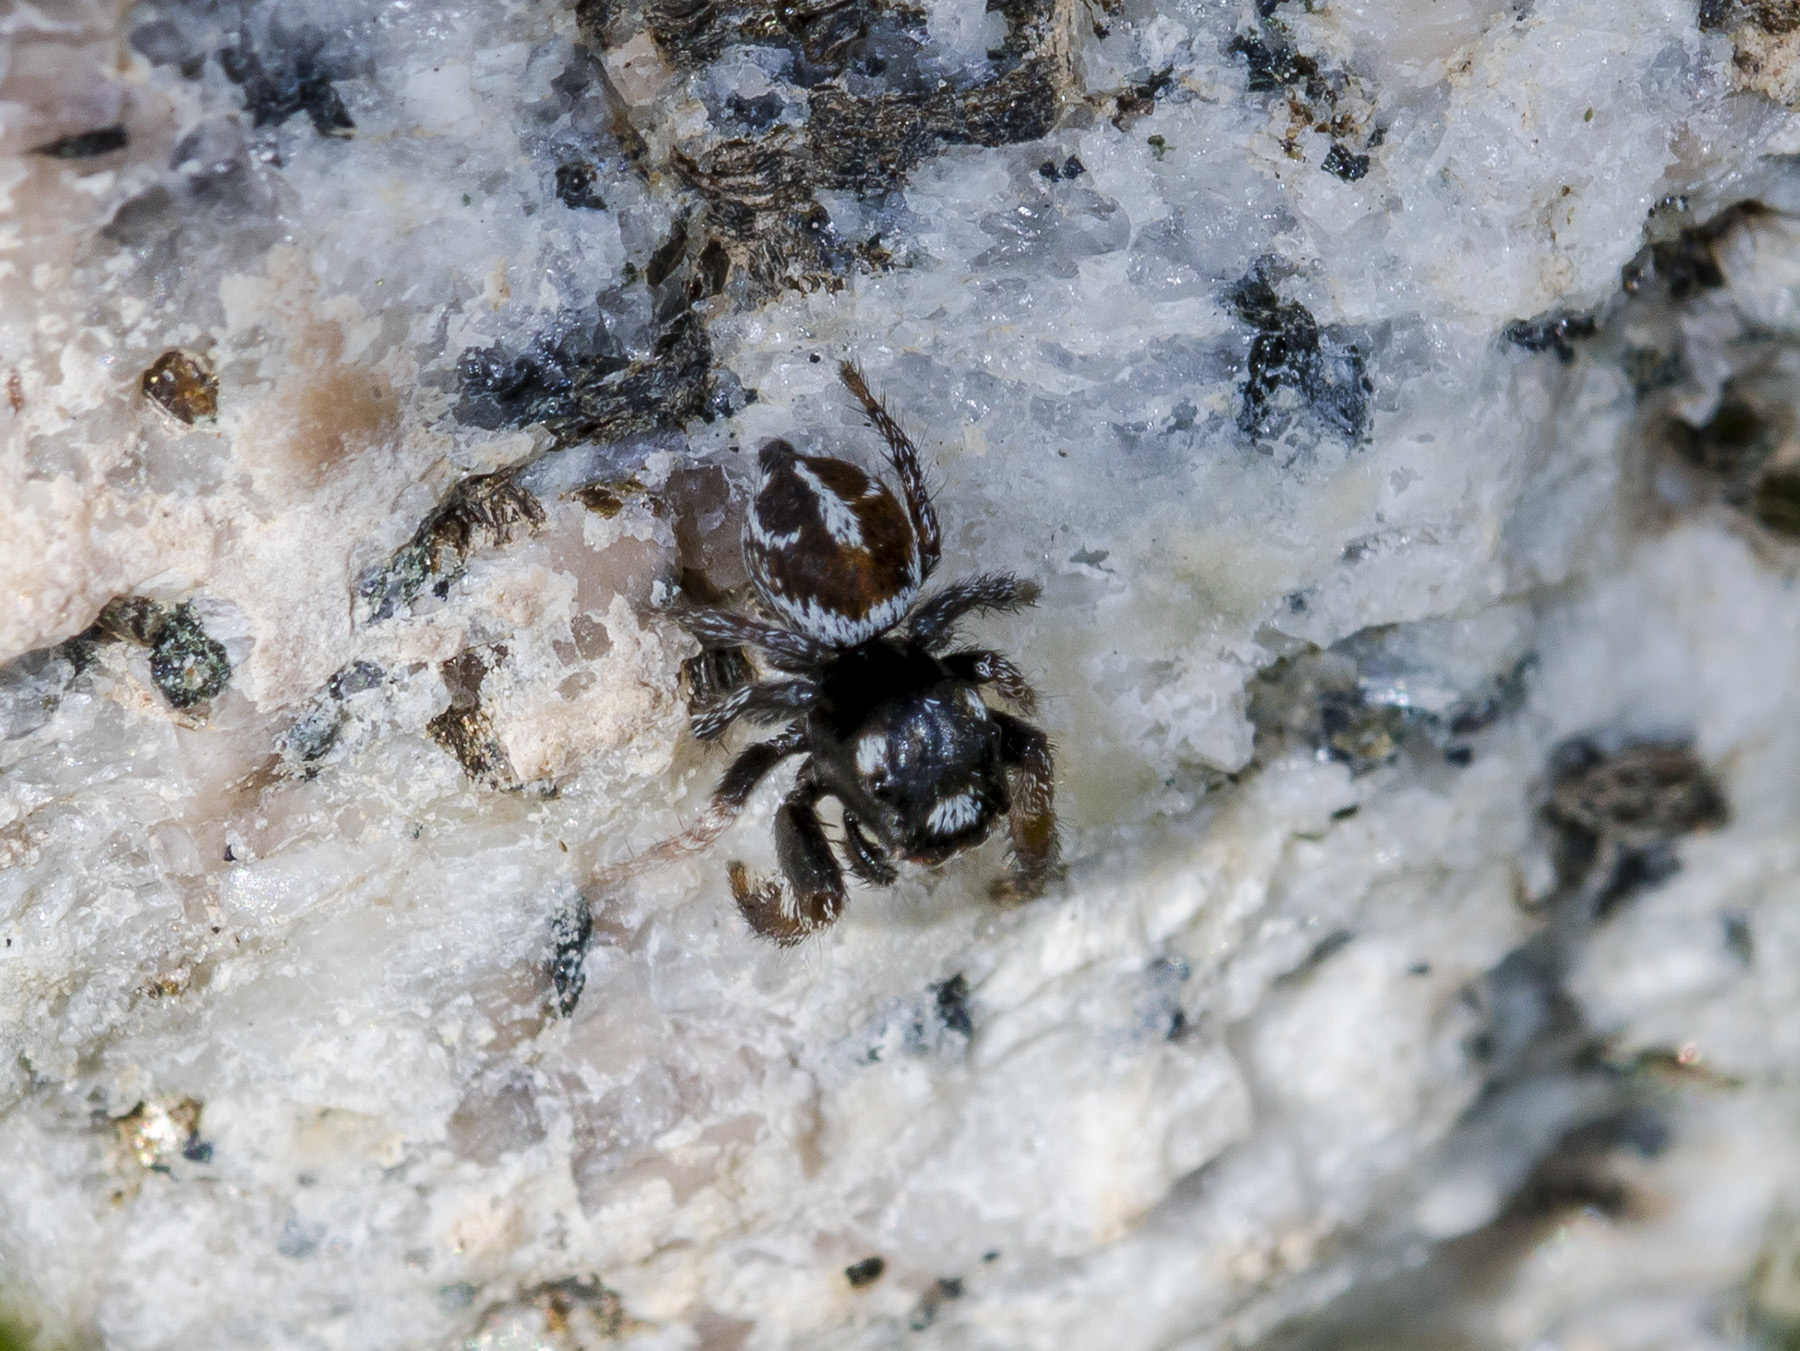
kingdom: Animalia
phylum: Arthropoda
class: Arachnida
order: Araneae
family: Salticidae
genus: Pellenes
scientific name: Pellenes geniculatus
